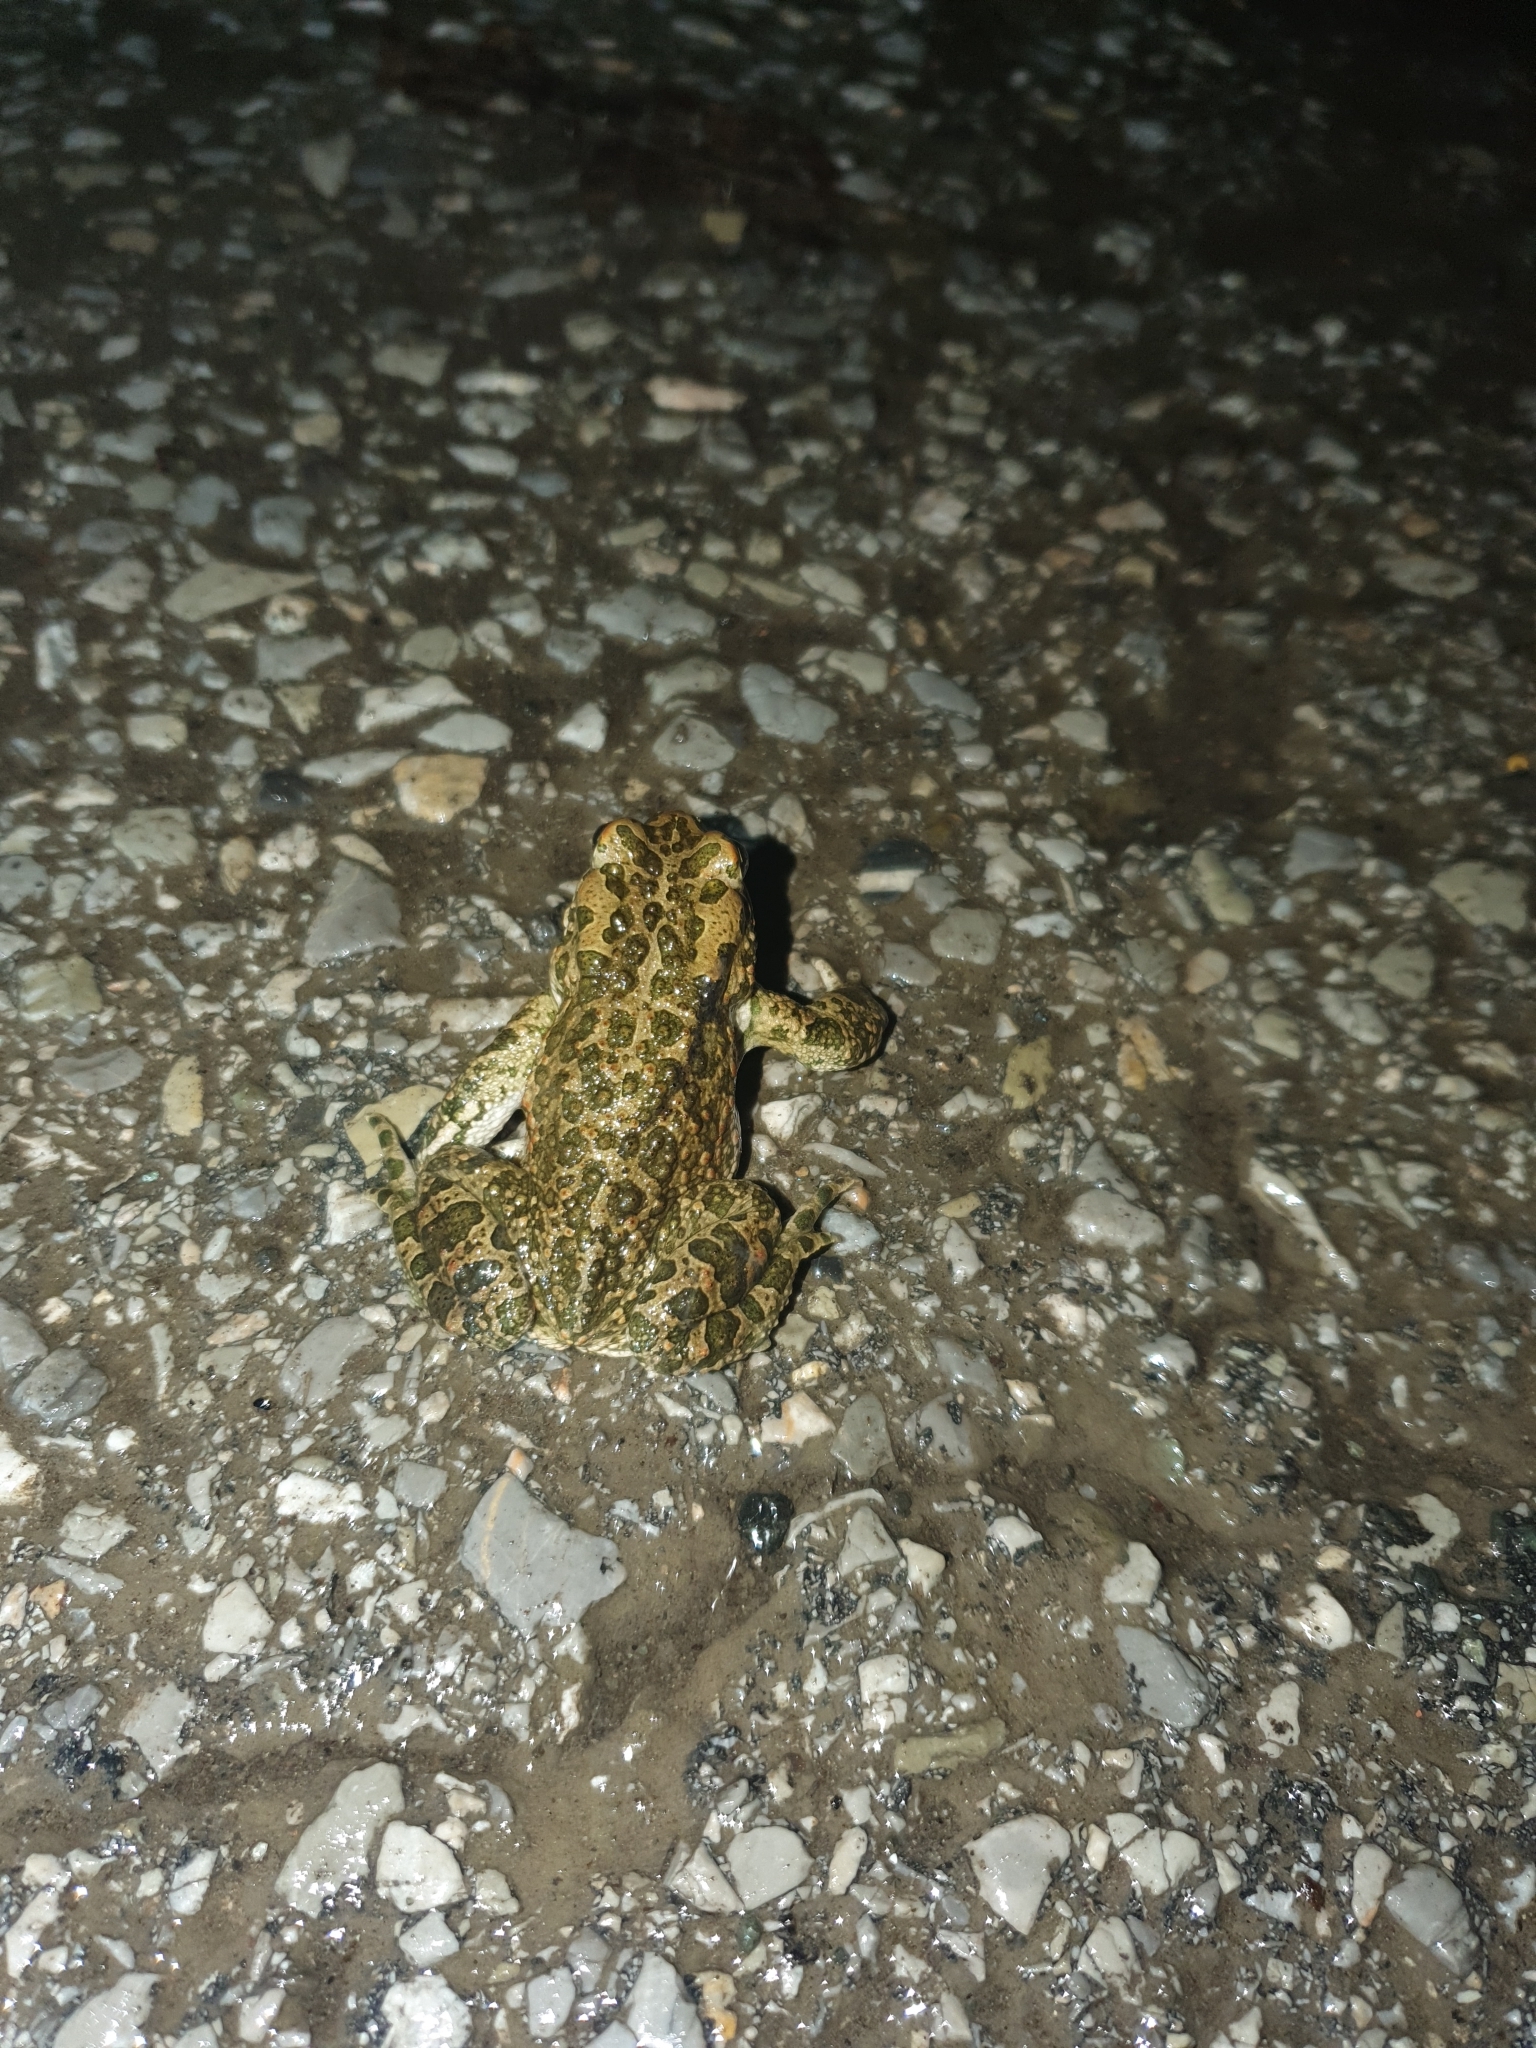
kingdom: Animalia
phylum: Chordata
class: Amphibia
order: Anura
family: Bufonidae
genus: Bufotes
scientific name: Bufotes viridis
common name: European green toad
